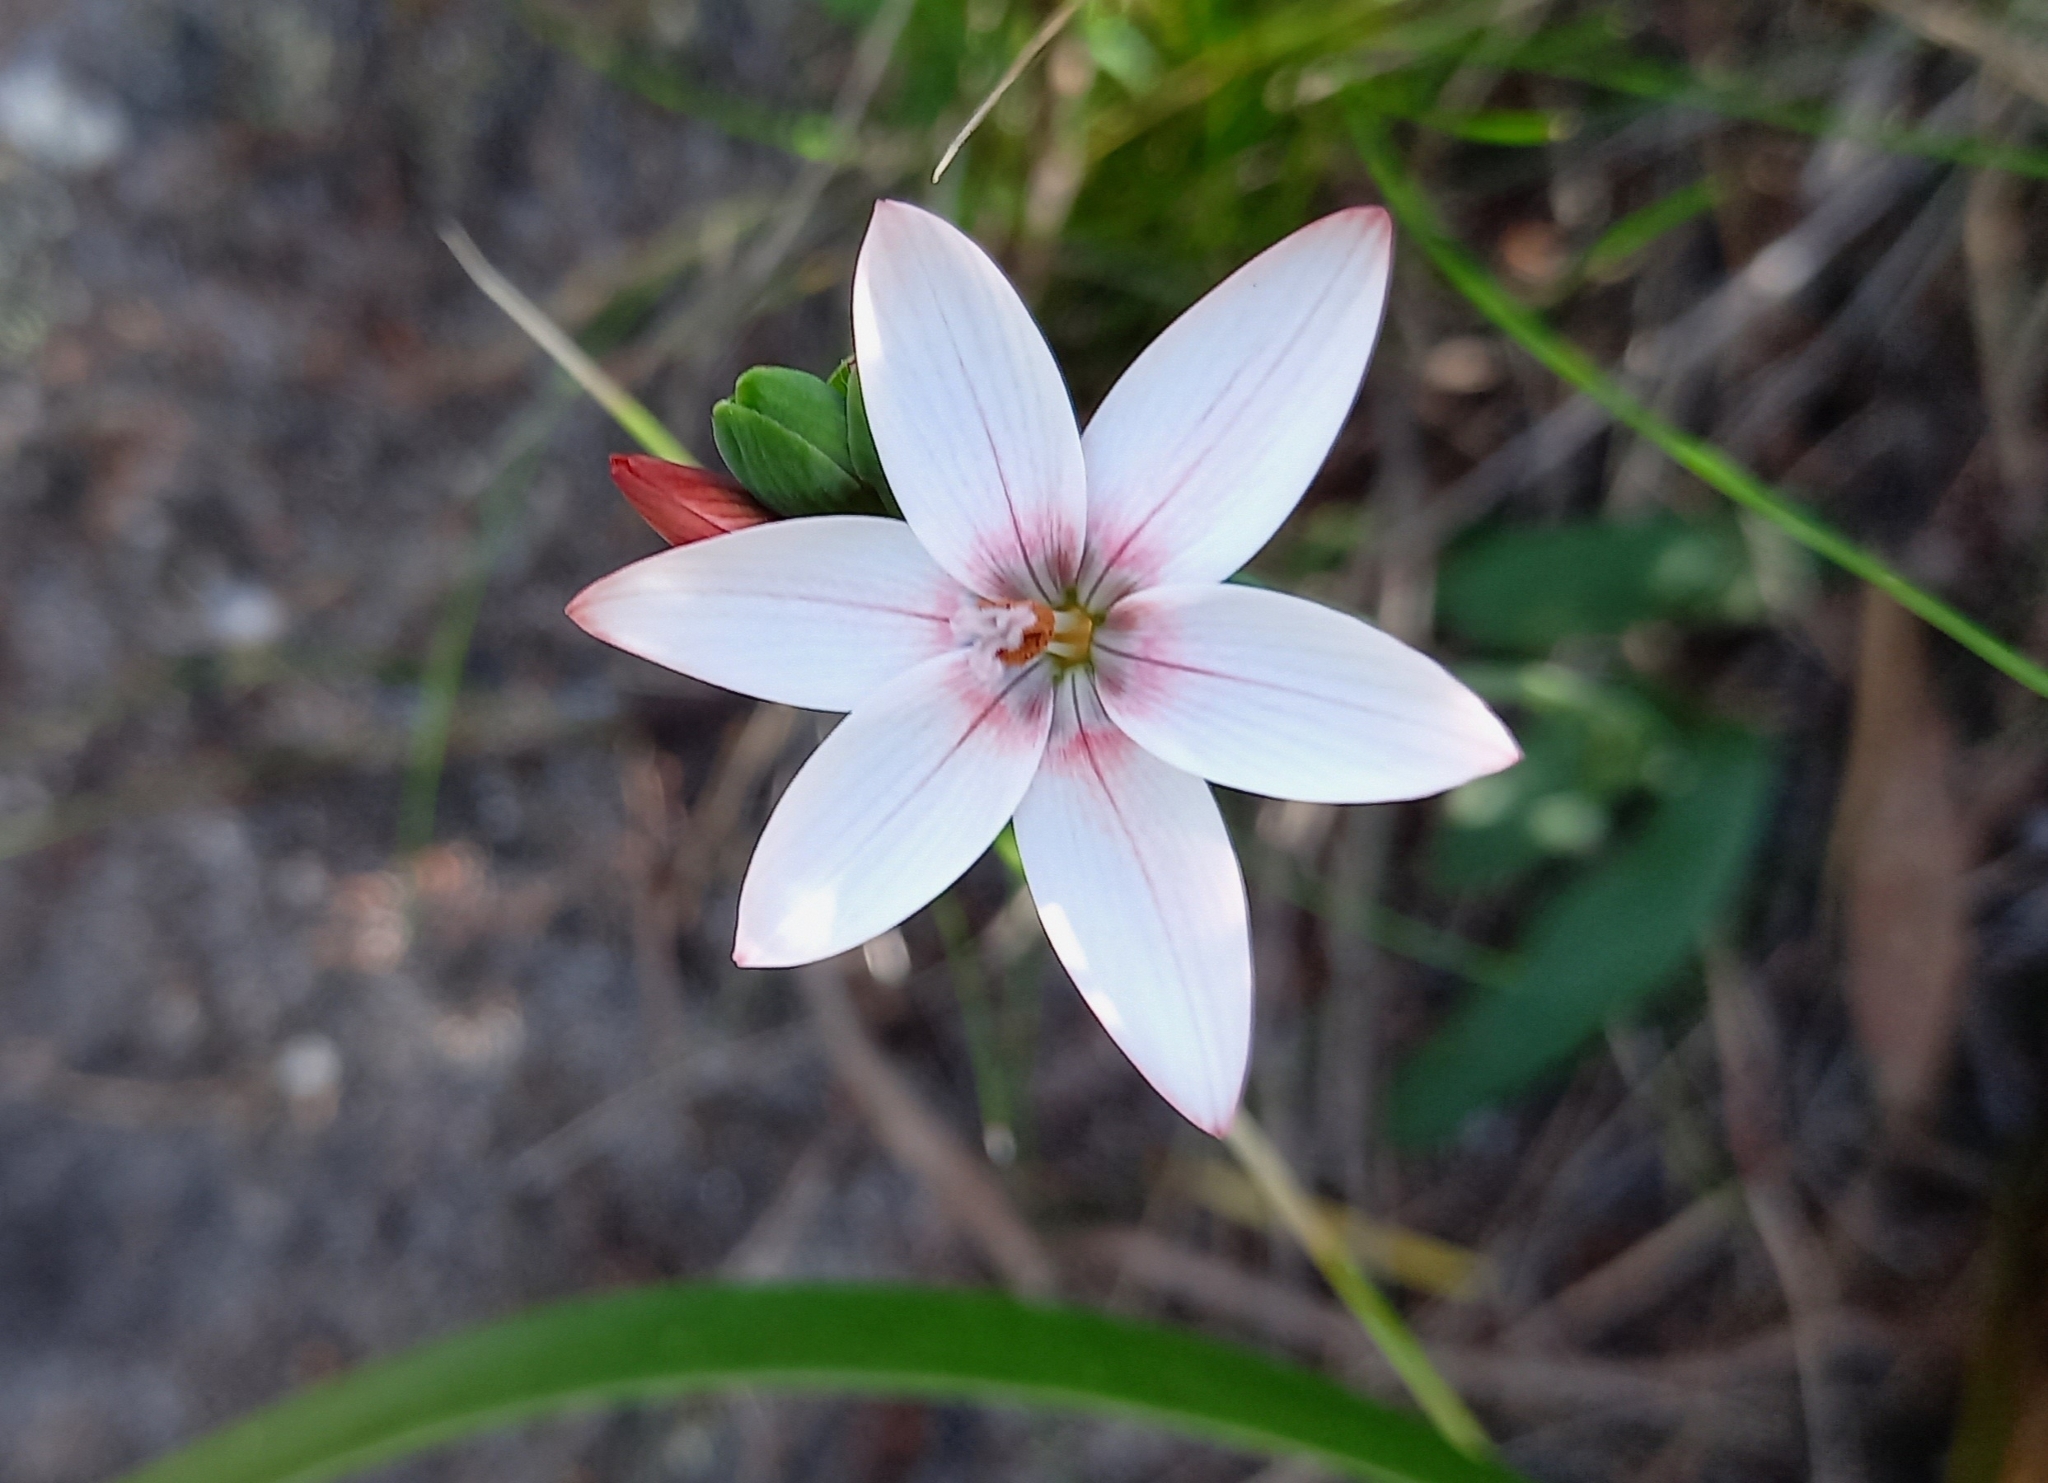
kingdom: Plantae
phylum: Tracheophyta
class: Liliopsida
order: Asparagales
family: Iridaceae
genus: Geissorhiza
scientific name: Geissorhiza ovata
